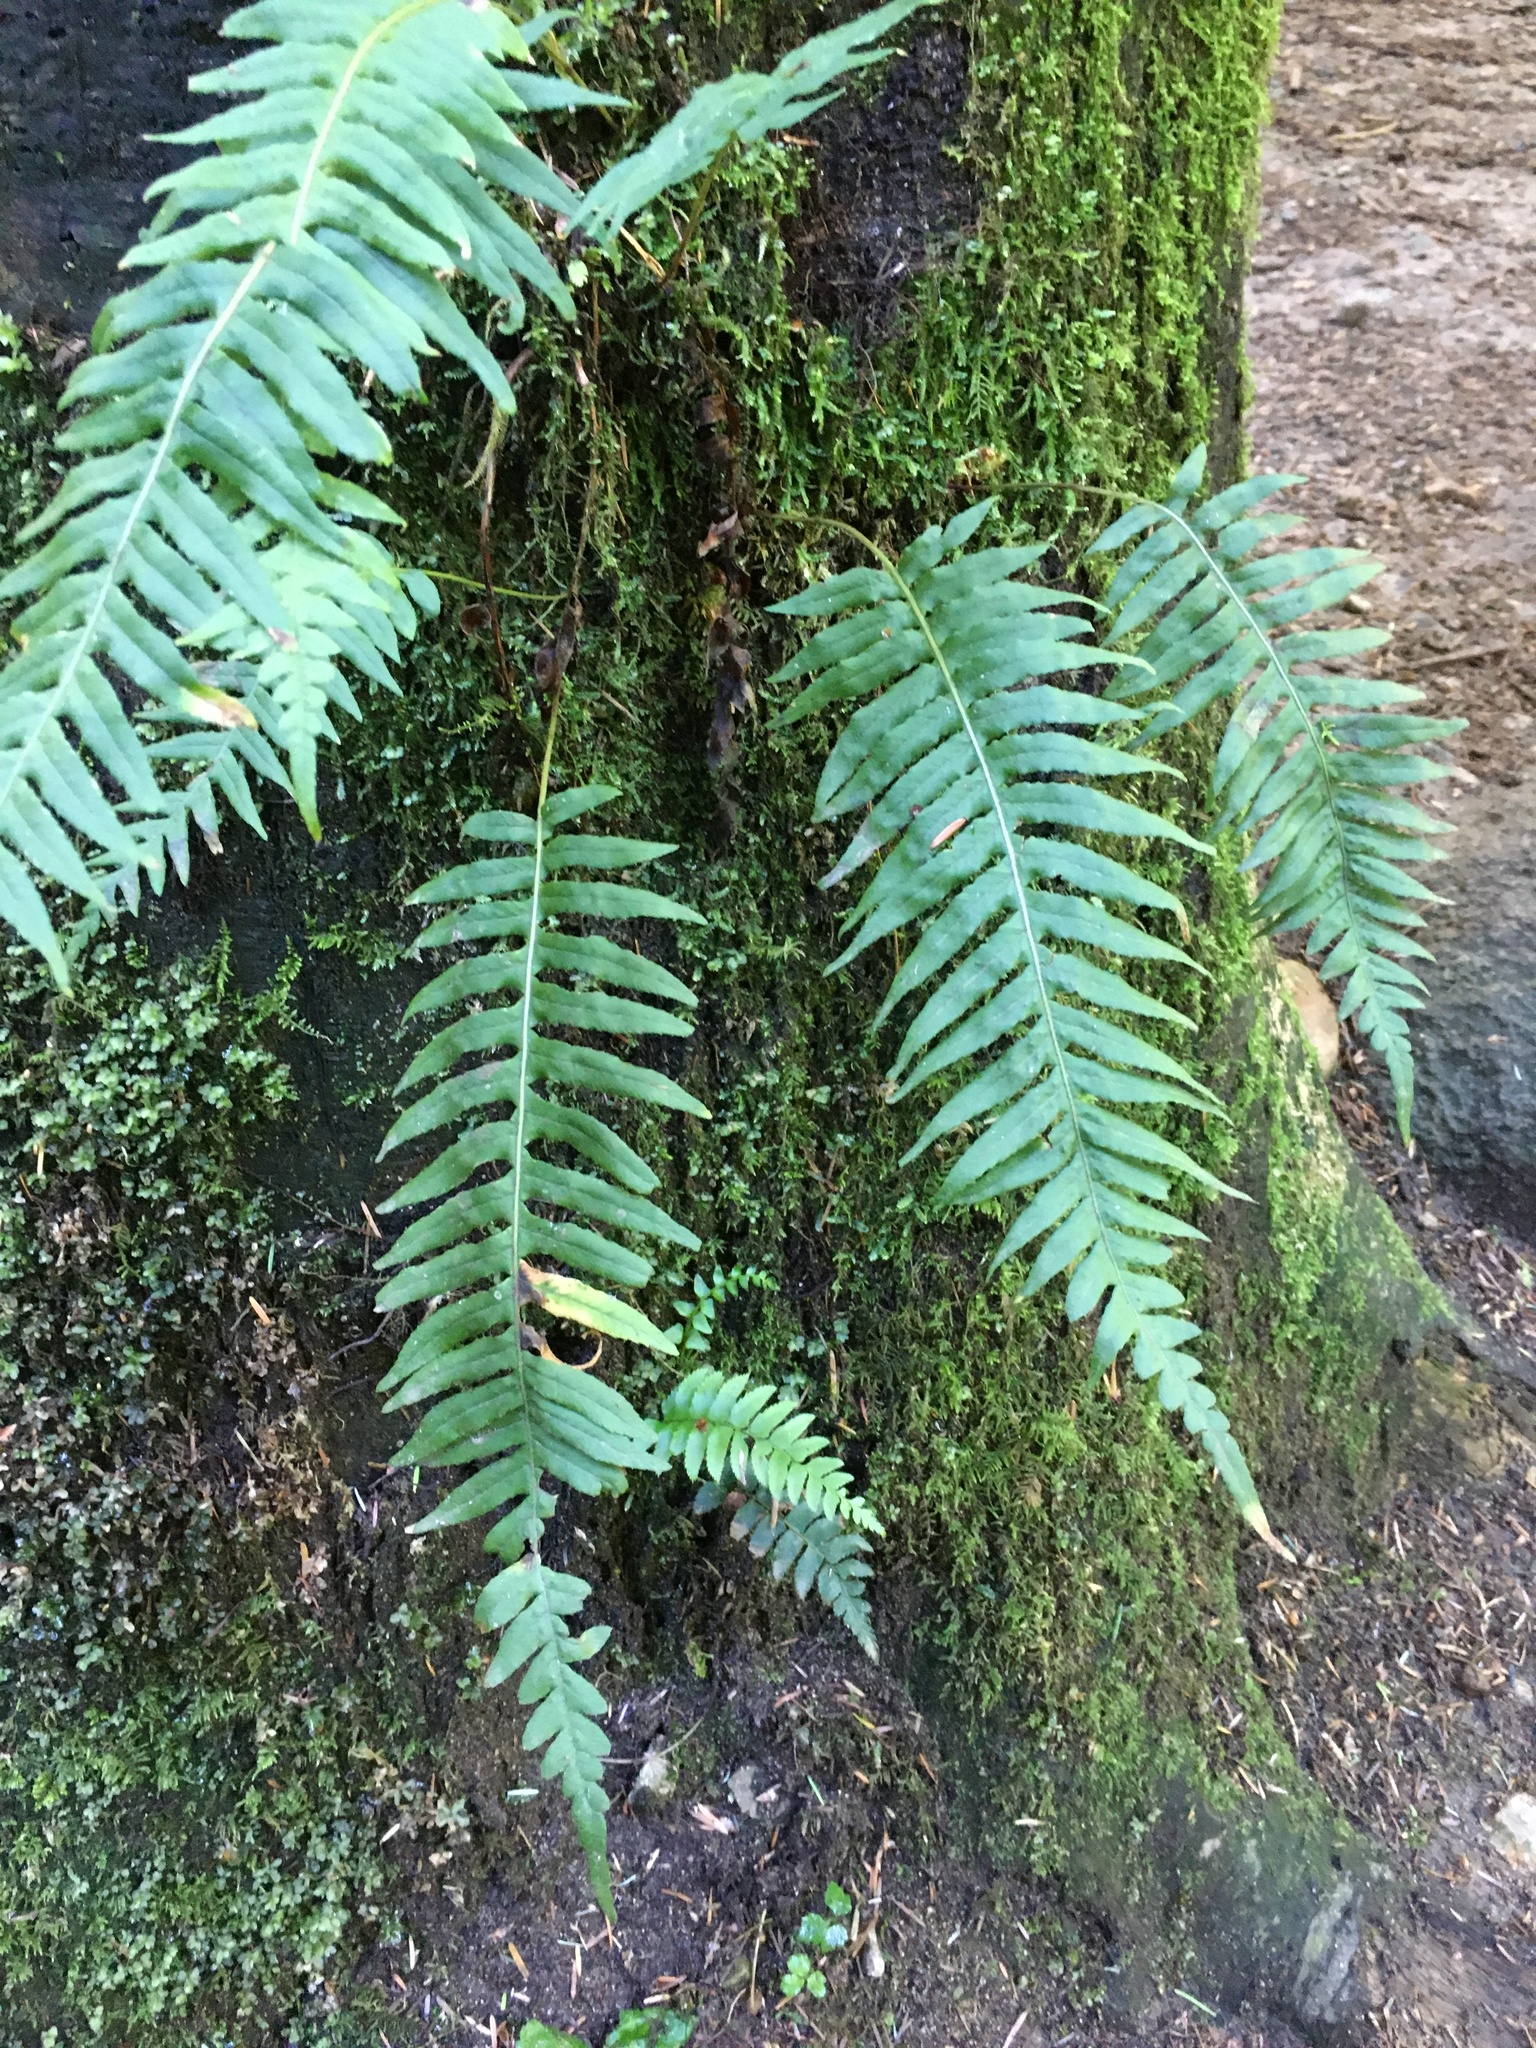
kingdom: Plantae
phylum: Tracheophyta
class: Polypodiopsida
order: Polypodiales
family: Polypodiaceae
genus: Polypodium
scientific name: Polypodium glycyrrhiza
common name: Licorice fern
